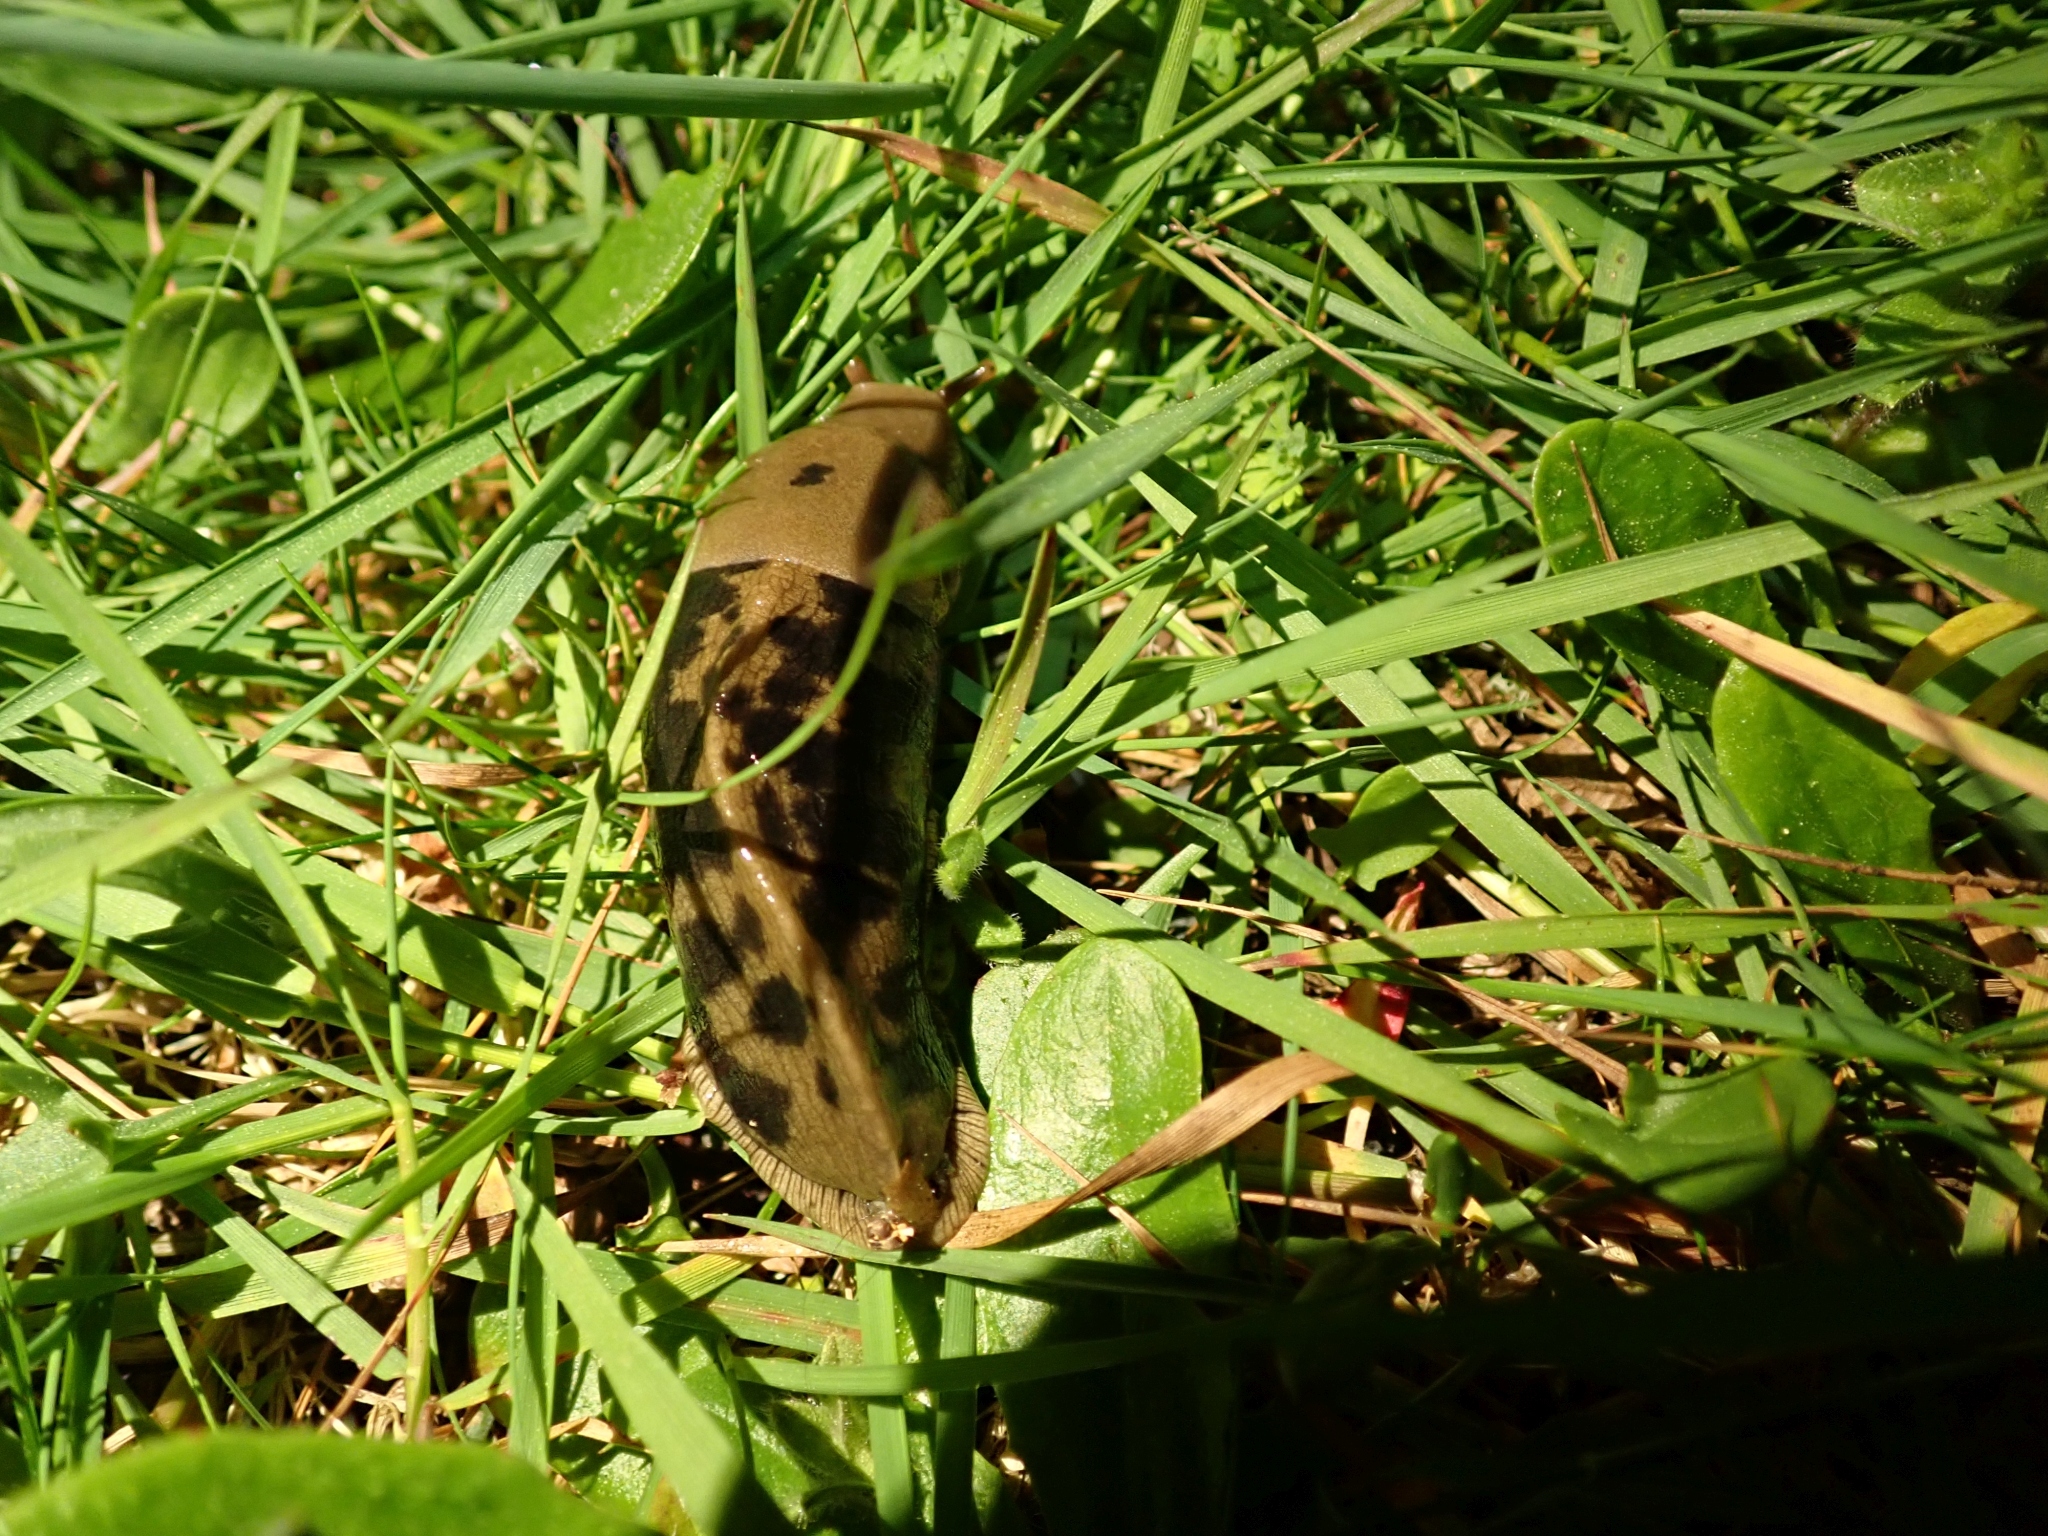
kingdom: Animalia
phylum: Mollusca
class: Gastropoda
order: Stylommatophora
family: Ariolimacidae
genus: Ariolimax
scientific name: Ariolimax columbianus
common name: Pacific banana slug
